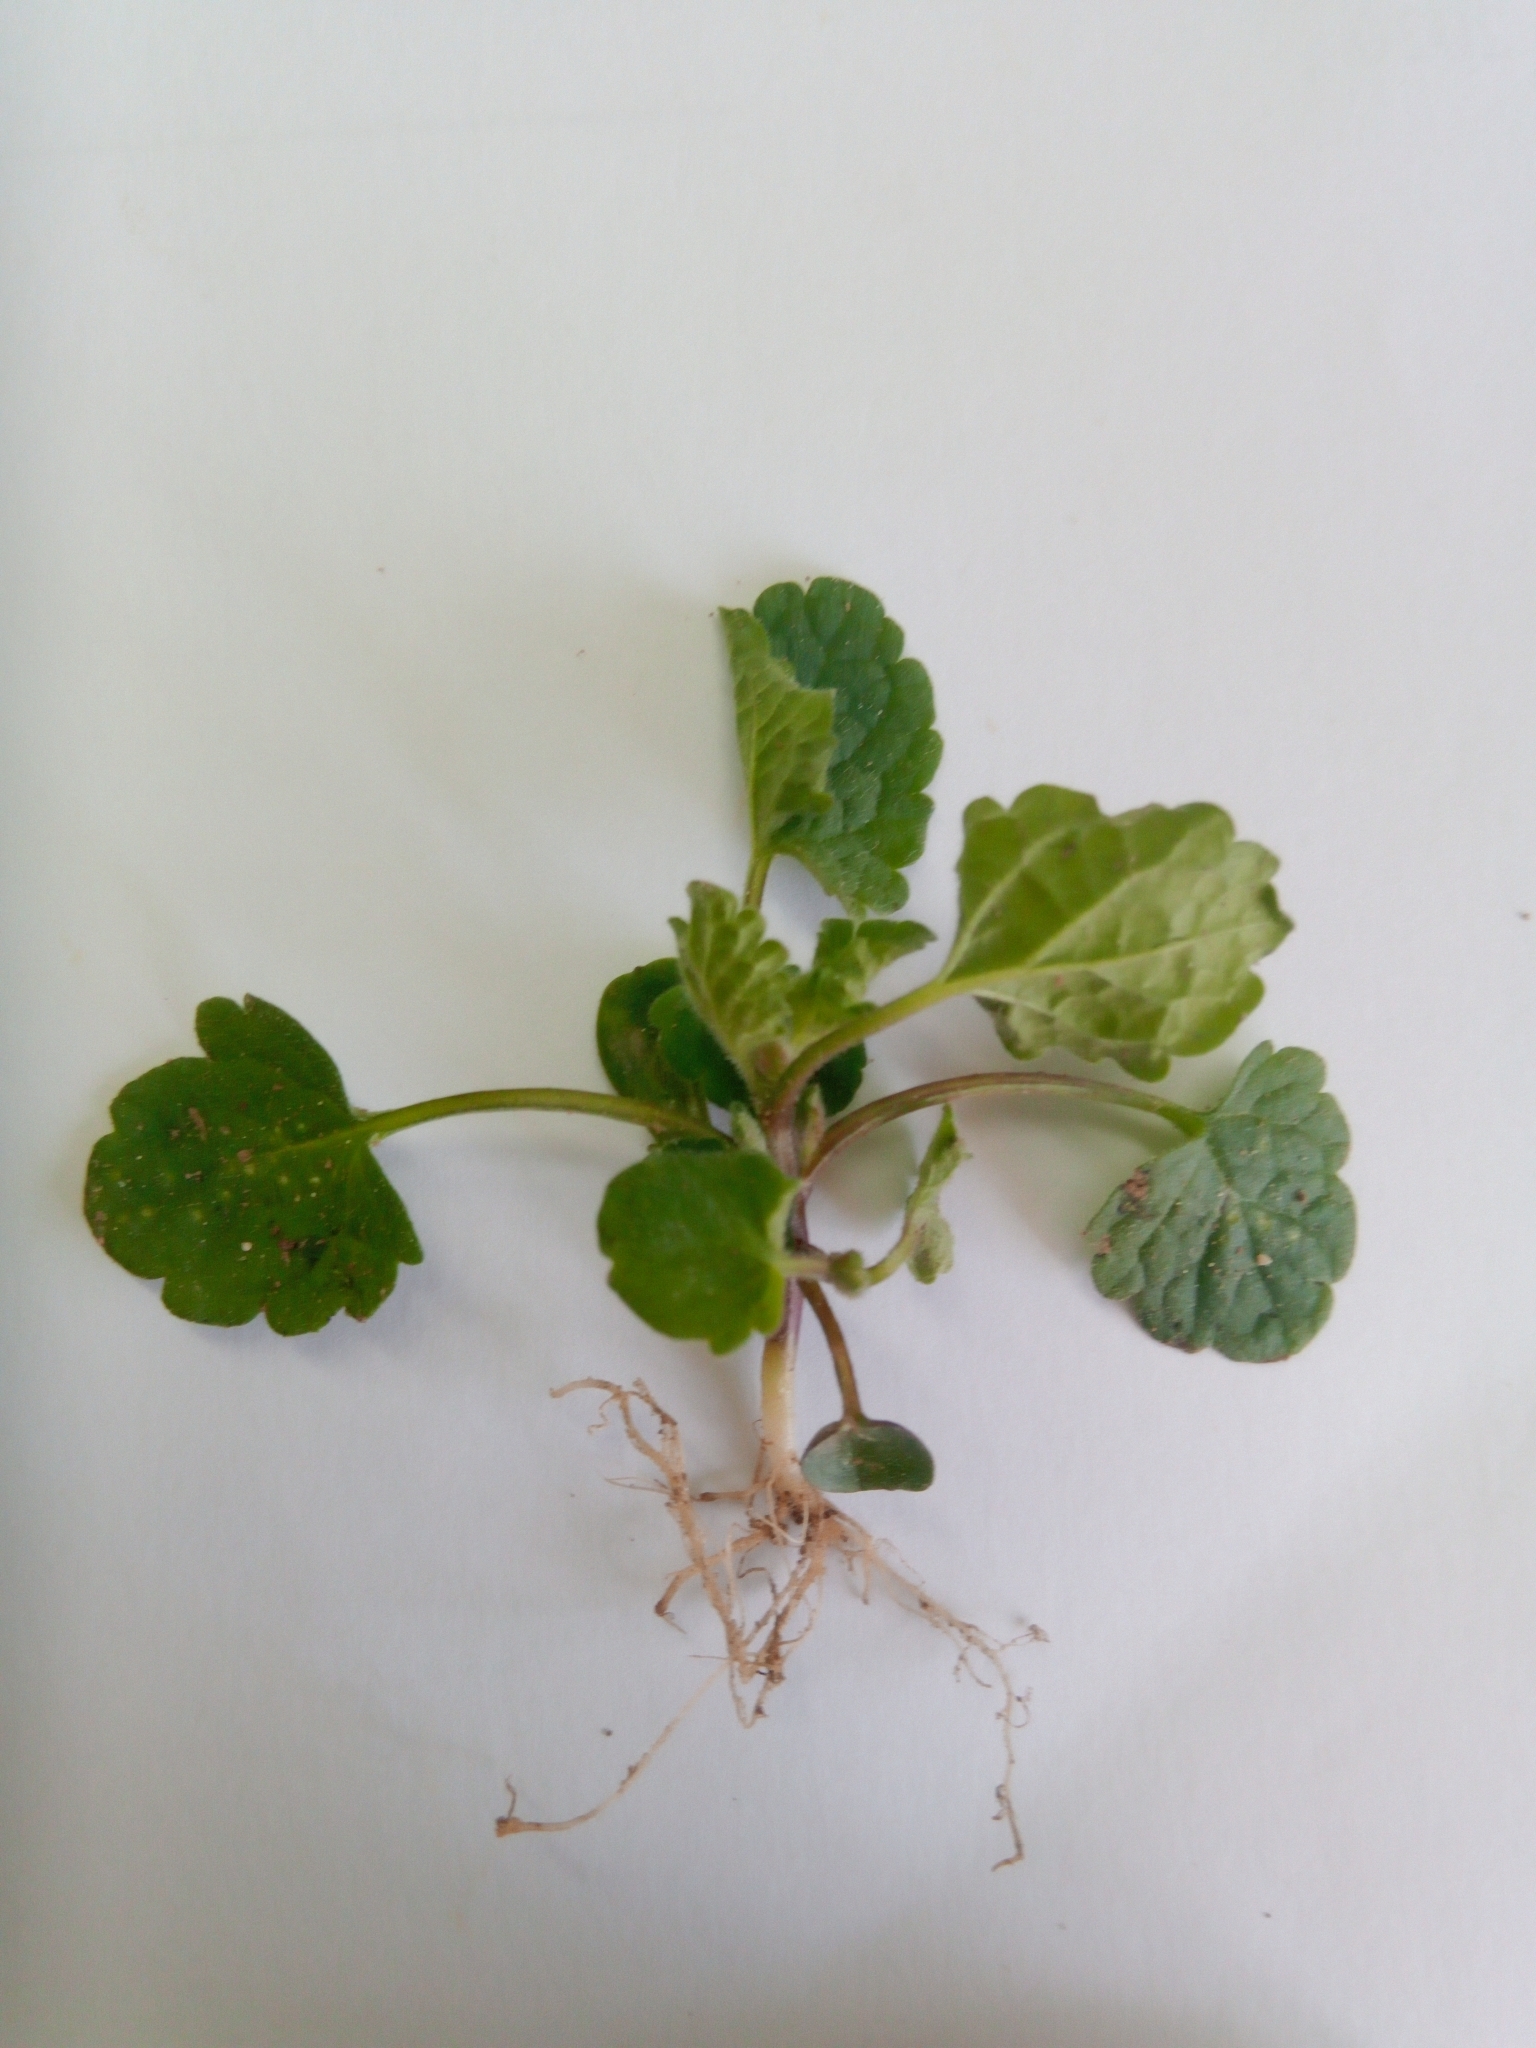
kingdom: Plantae
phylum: Tracheophyta
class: Magnoliopsida
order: Lamiales
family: Lamiaceae
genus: Glechoma
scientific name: Glechoma hederacea
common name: Ground ivy
